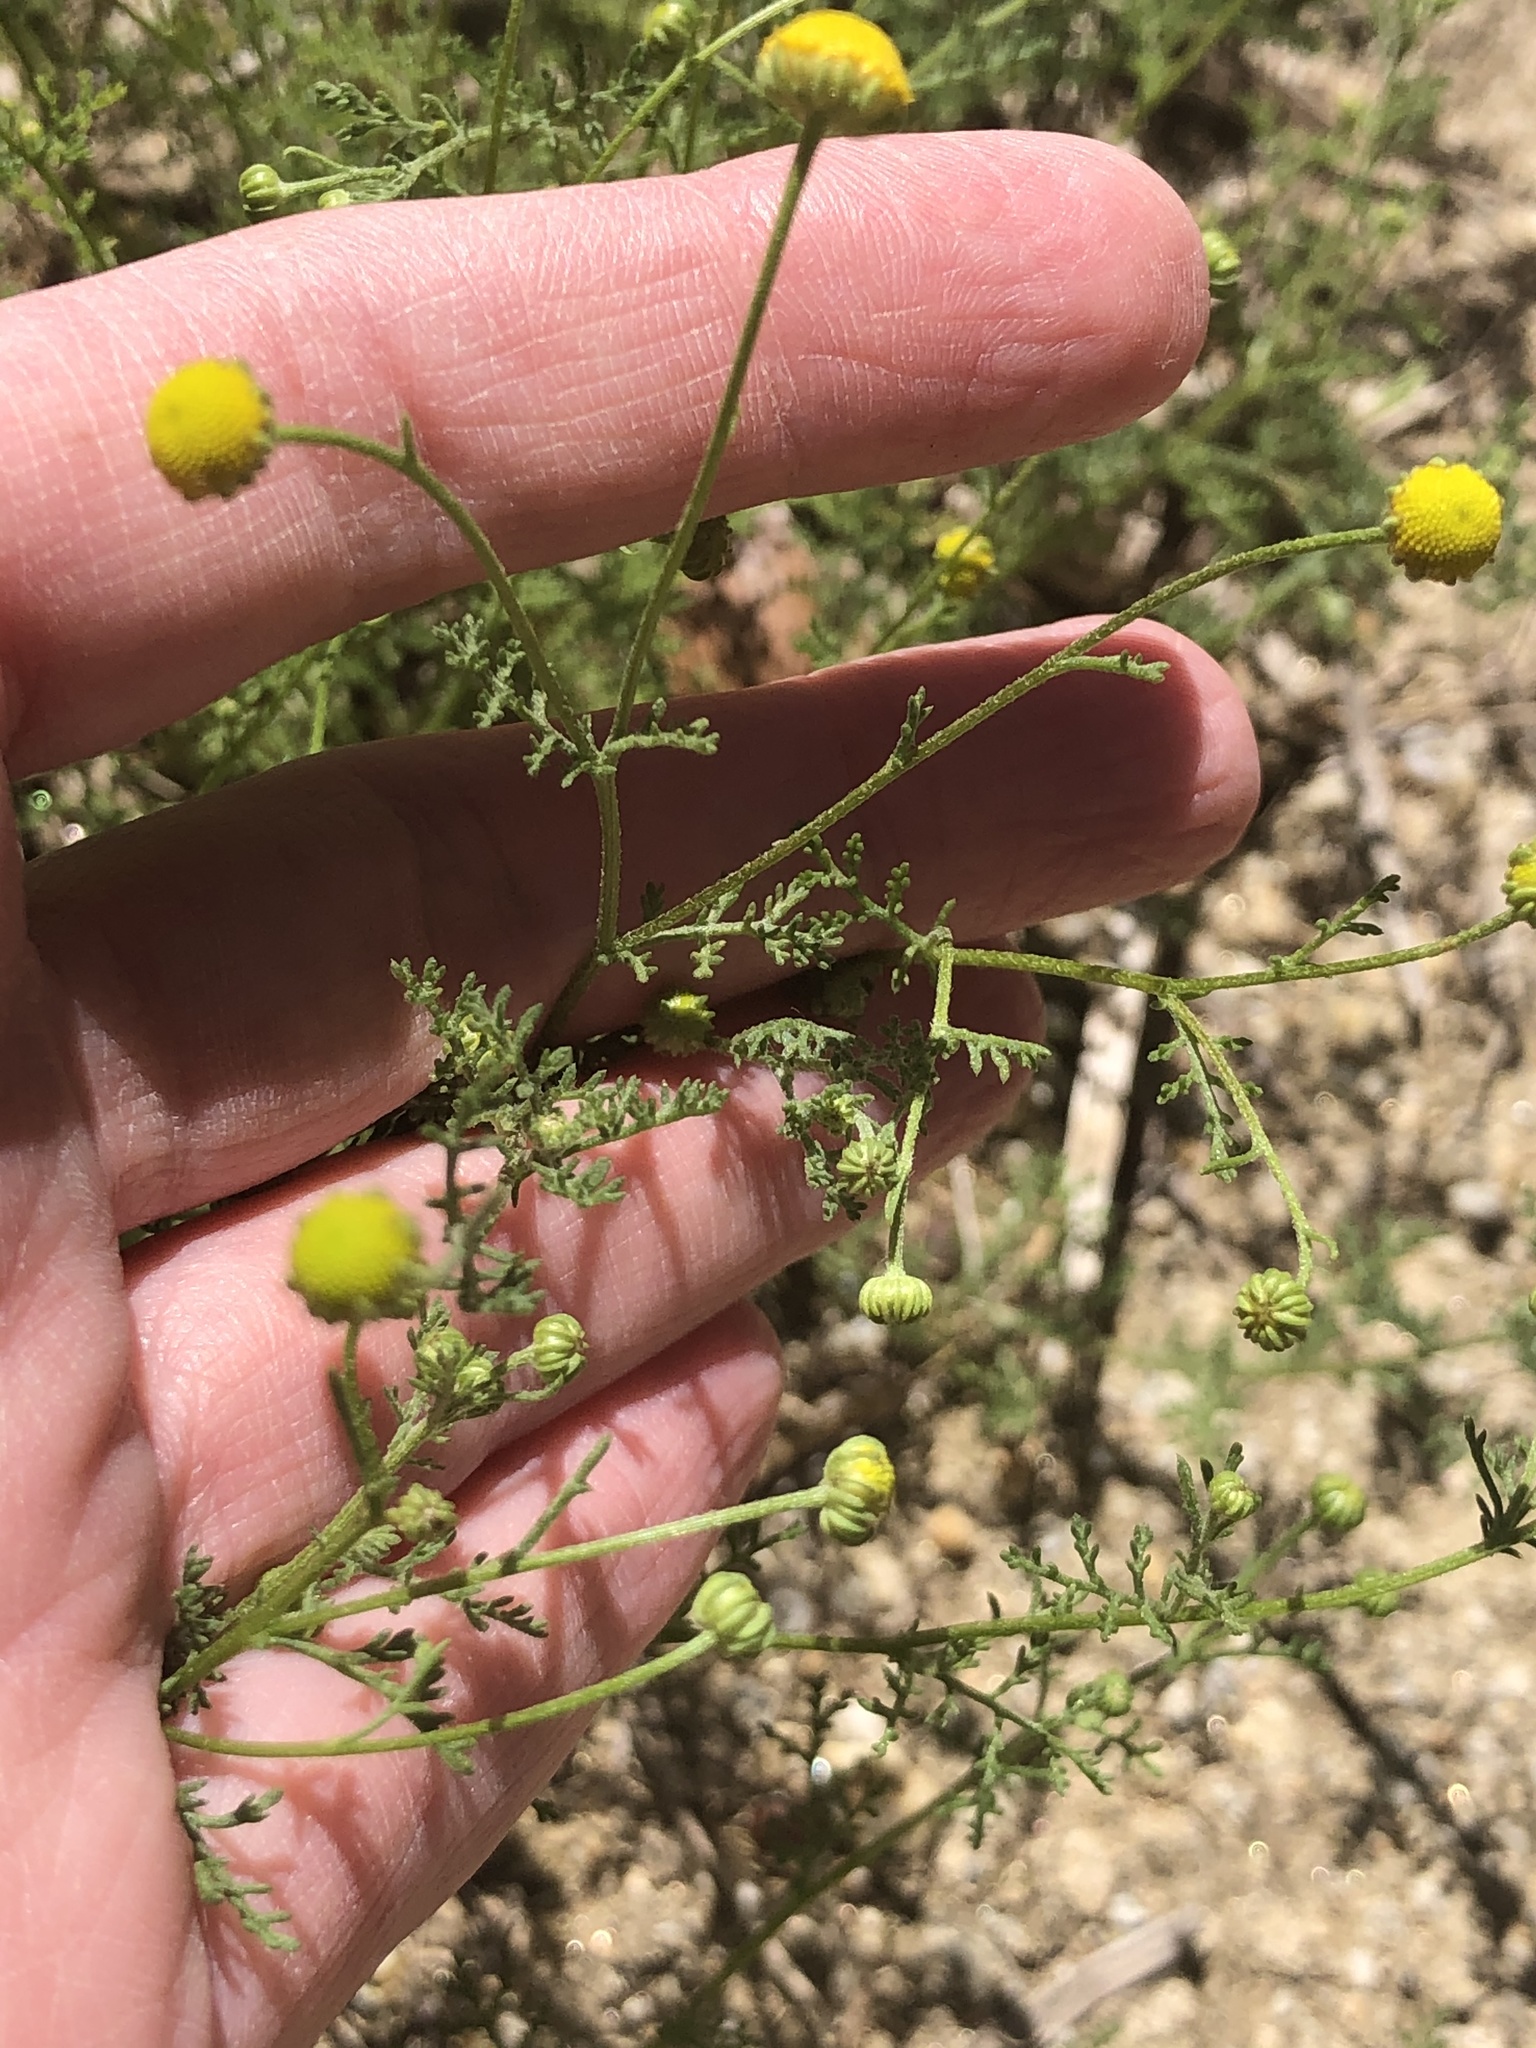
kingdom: Plantae
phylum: Tracheophyta
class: Magnoliopsida
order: Asterales
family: Asteraceae
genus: Oncosiphon
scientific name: Oncosiphon pilulifer
